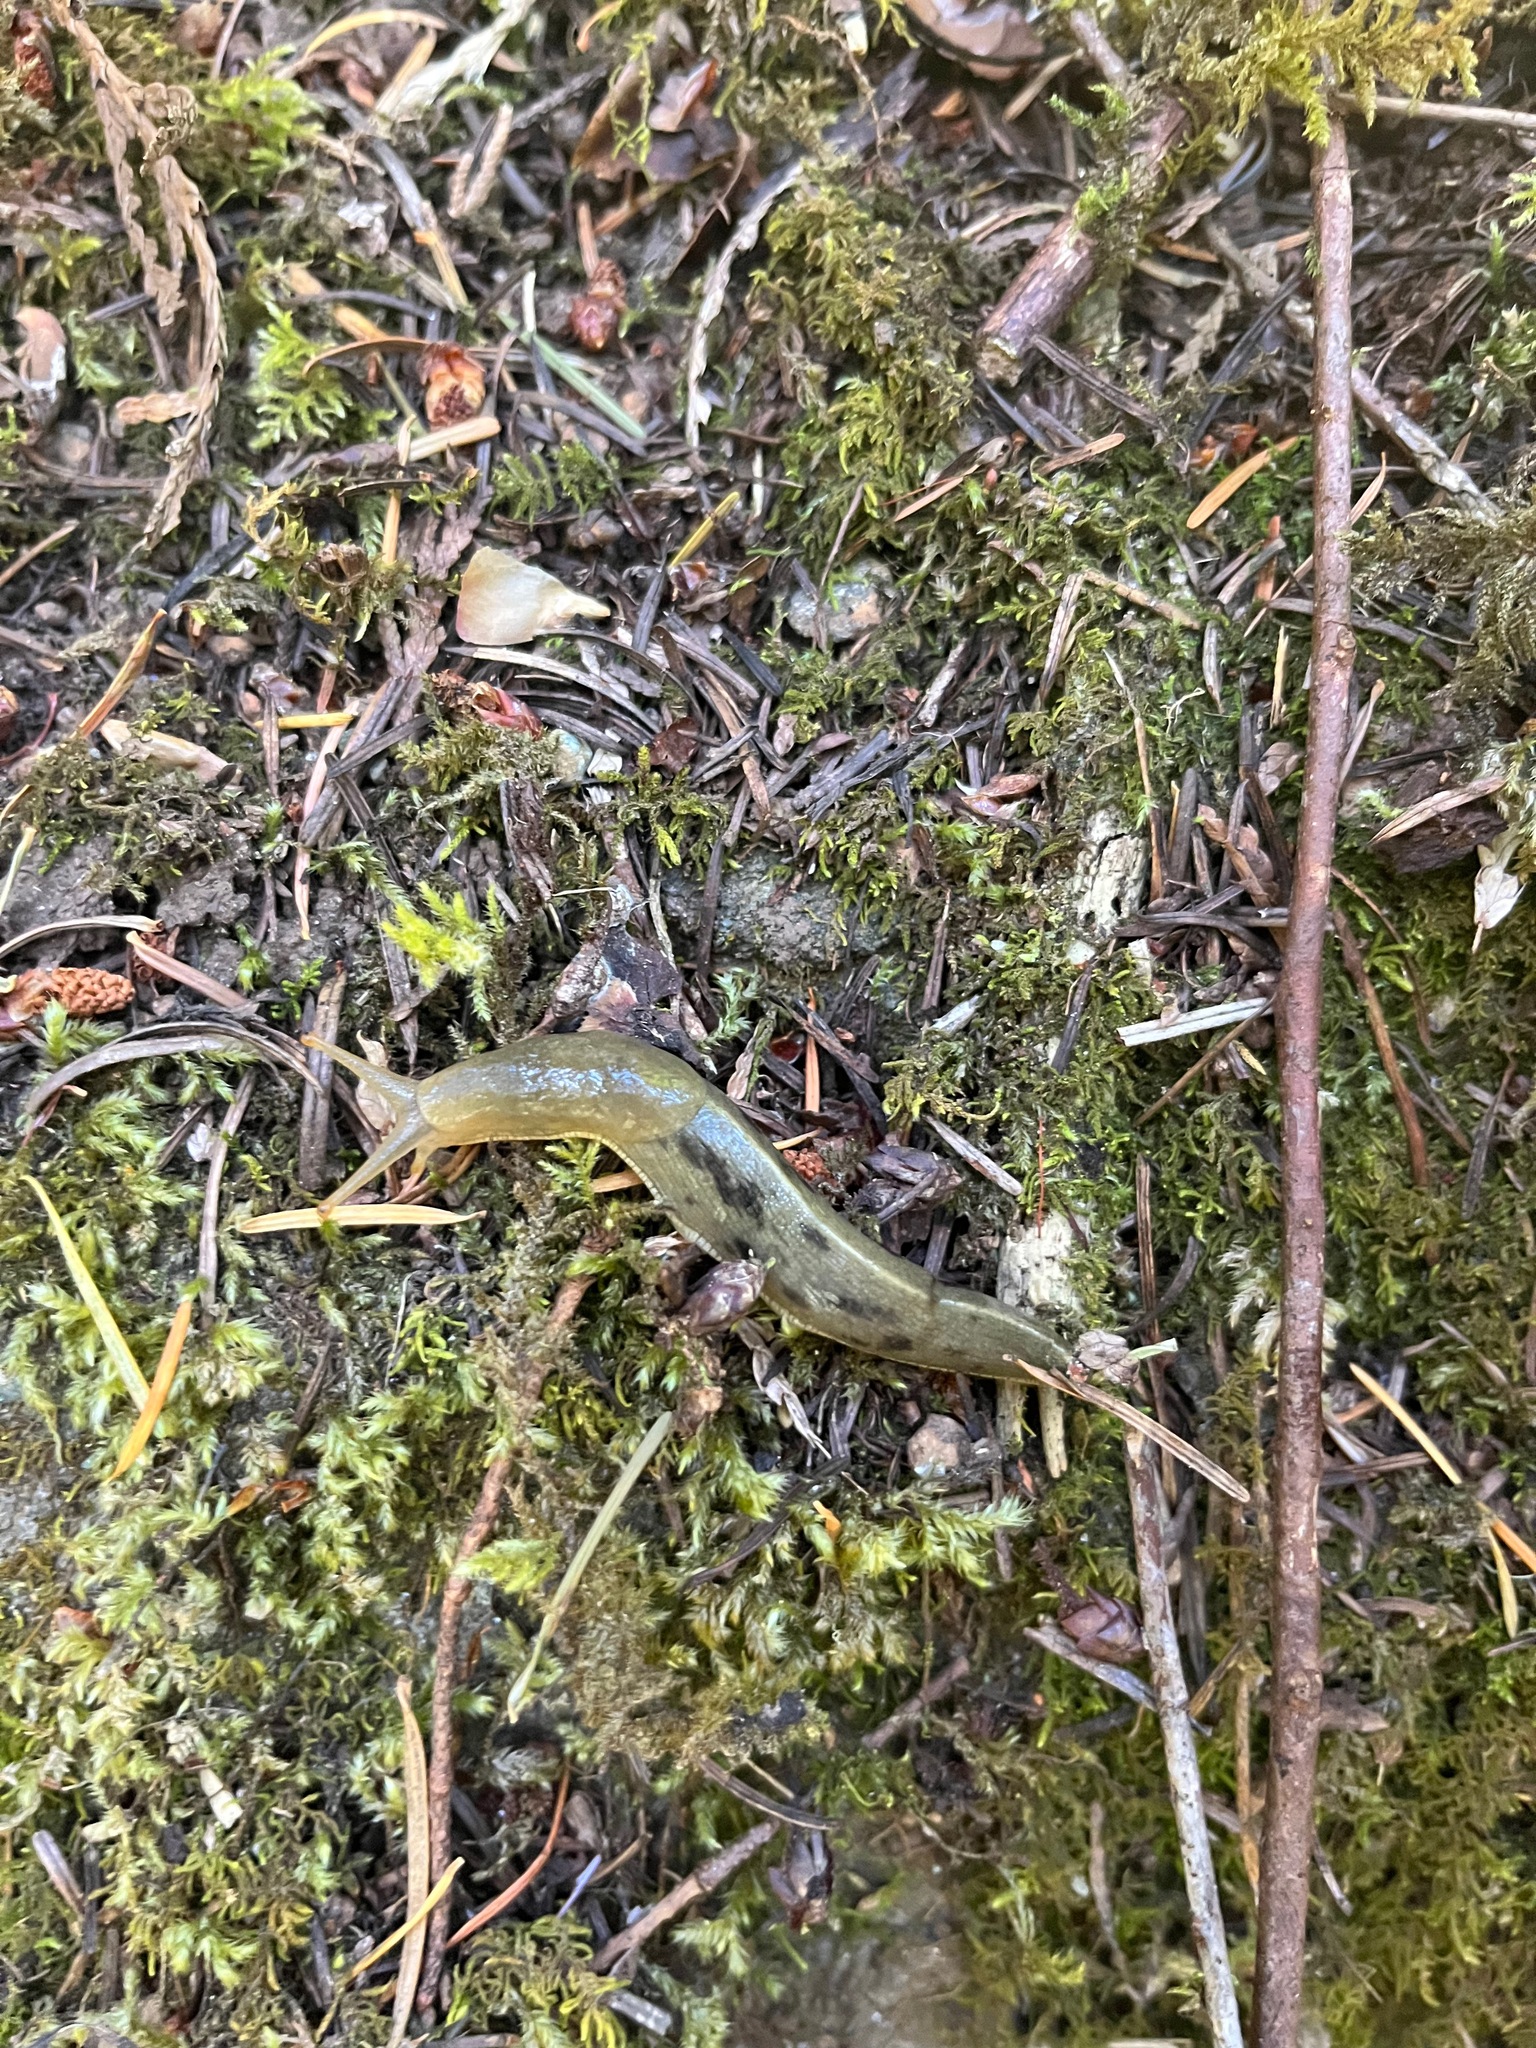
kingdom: Animalia
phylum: Mollusca
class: Gastropoda
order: Stylommatophora
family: Ariolimacidae
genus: Ariolimax
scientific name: Ariolimax columbianus
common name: Pacific banana slug
